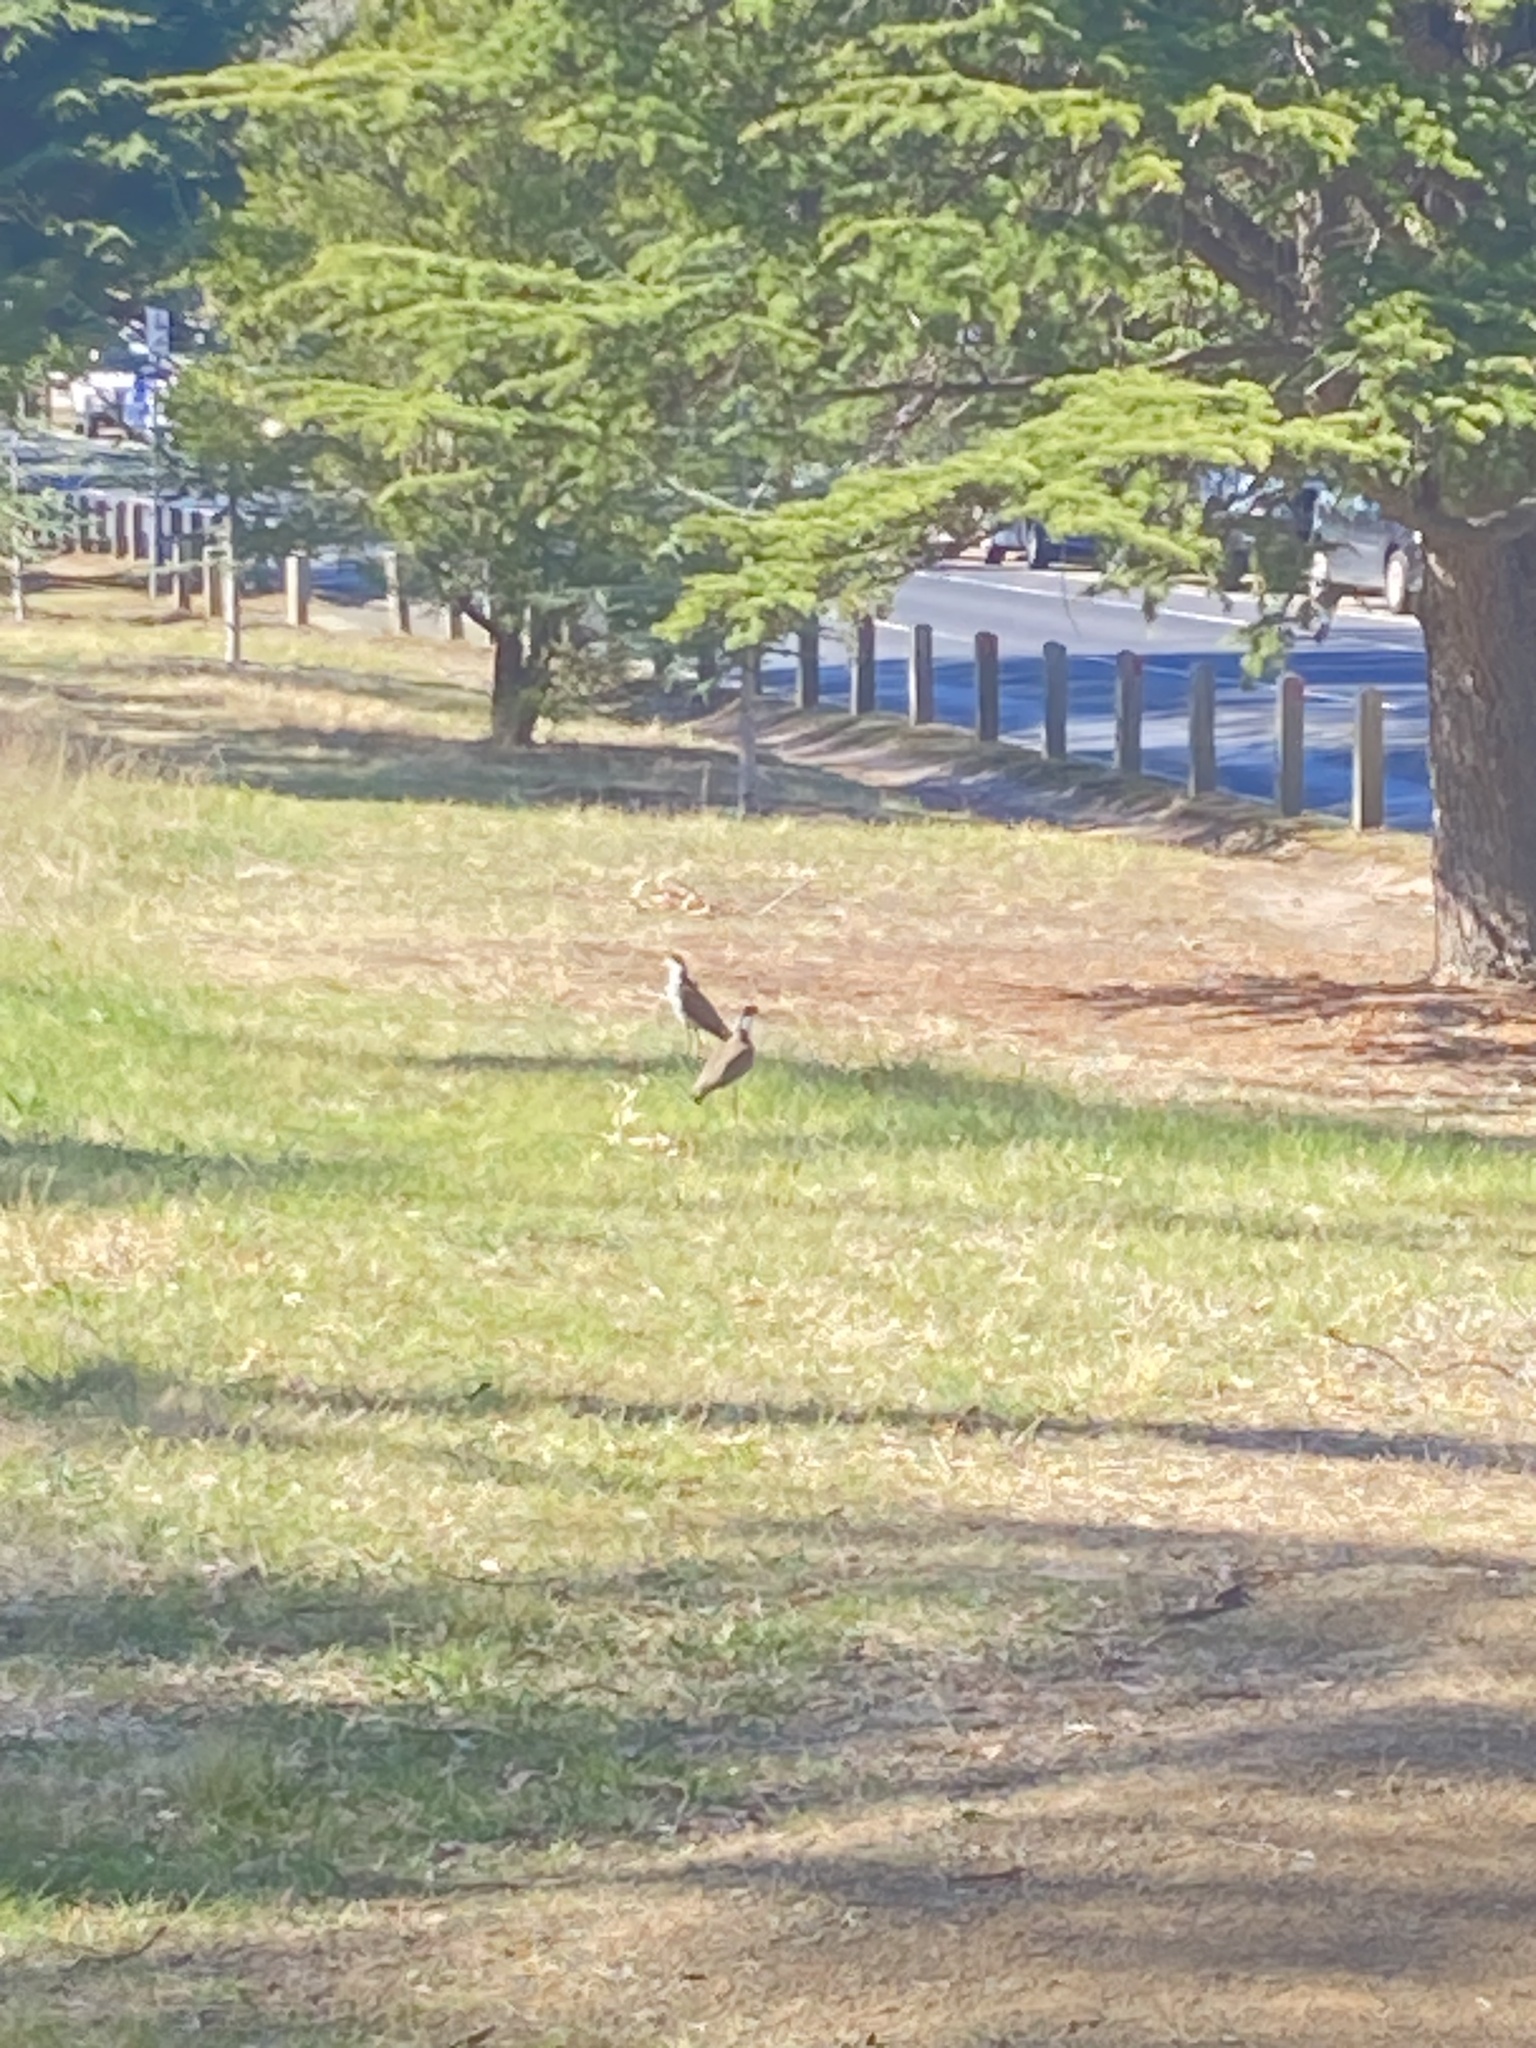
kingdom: Animalia
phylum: Chordata
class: Aves
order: Charadriiformes
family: Charadriidae
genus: Vanellus
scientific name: Vanellus miles
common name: Masked lapwing
